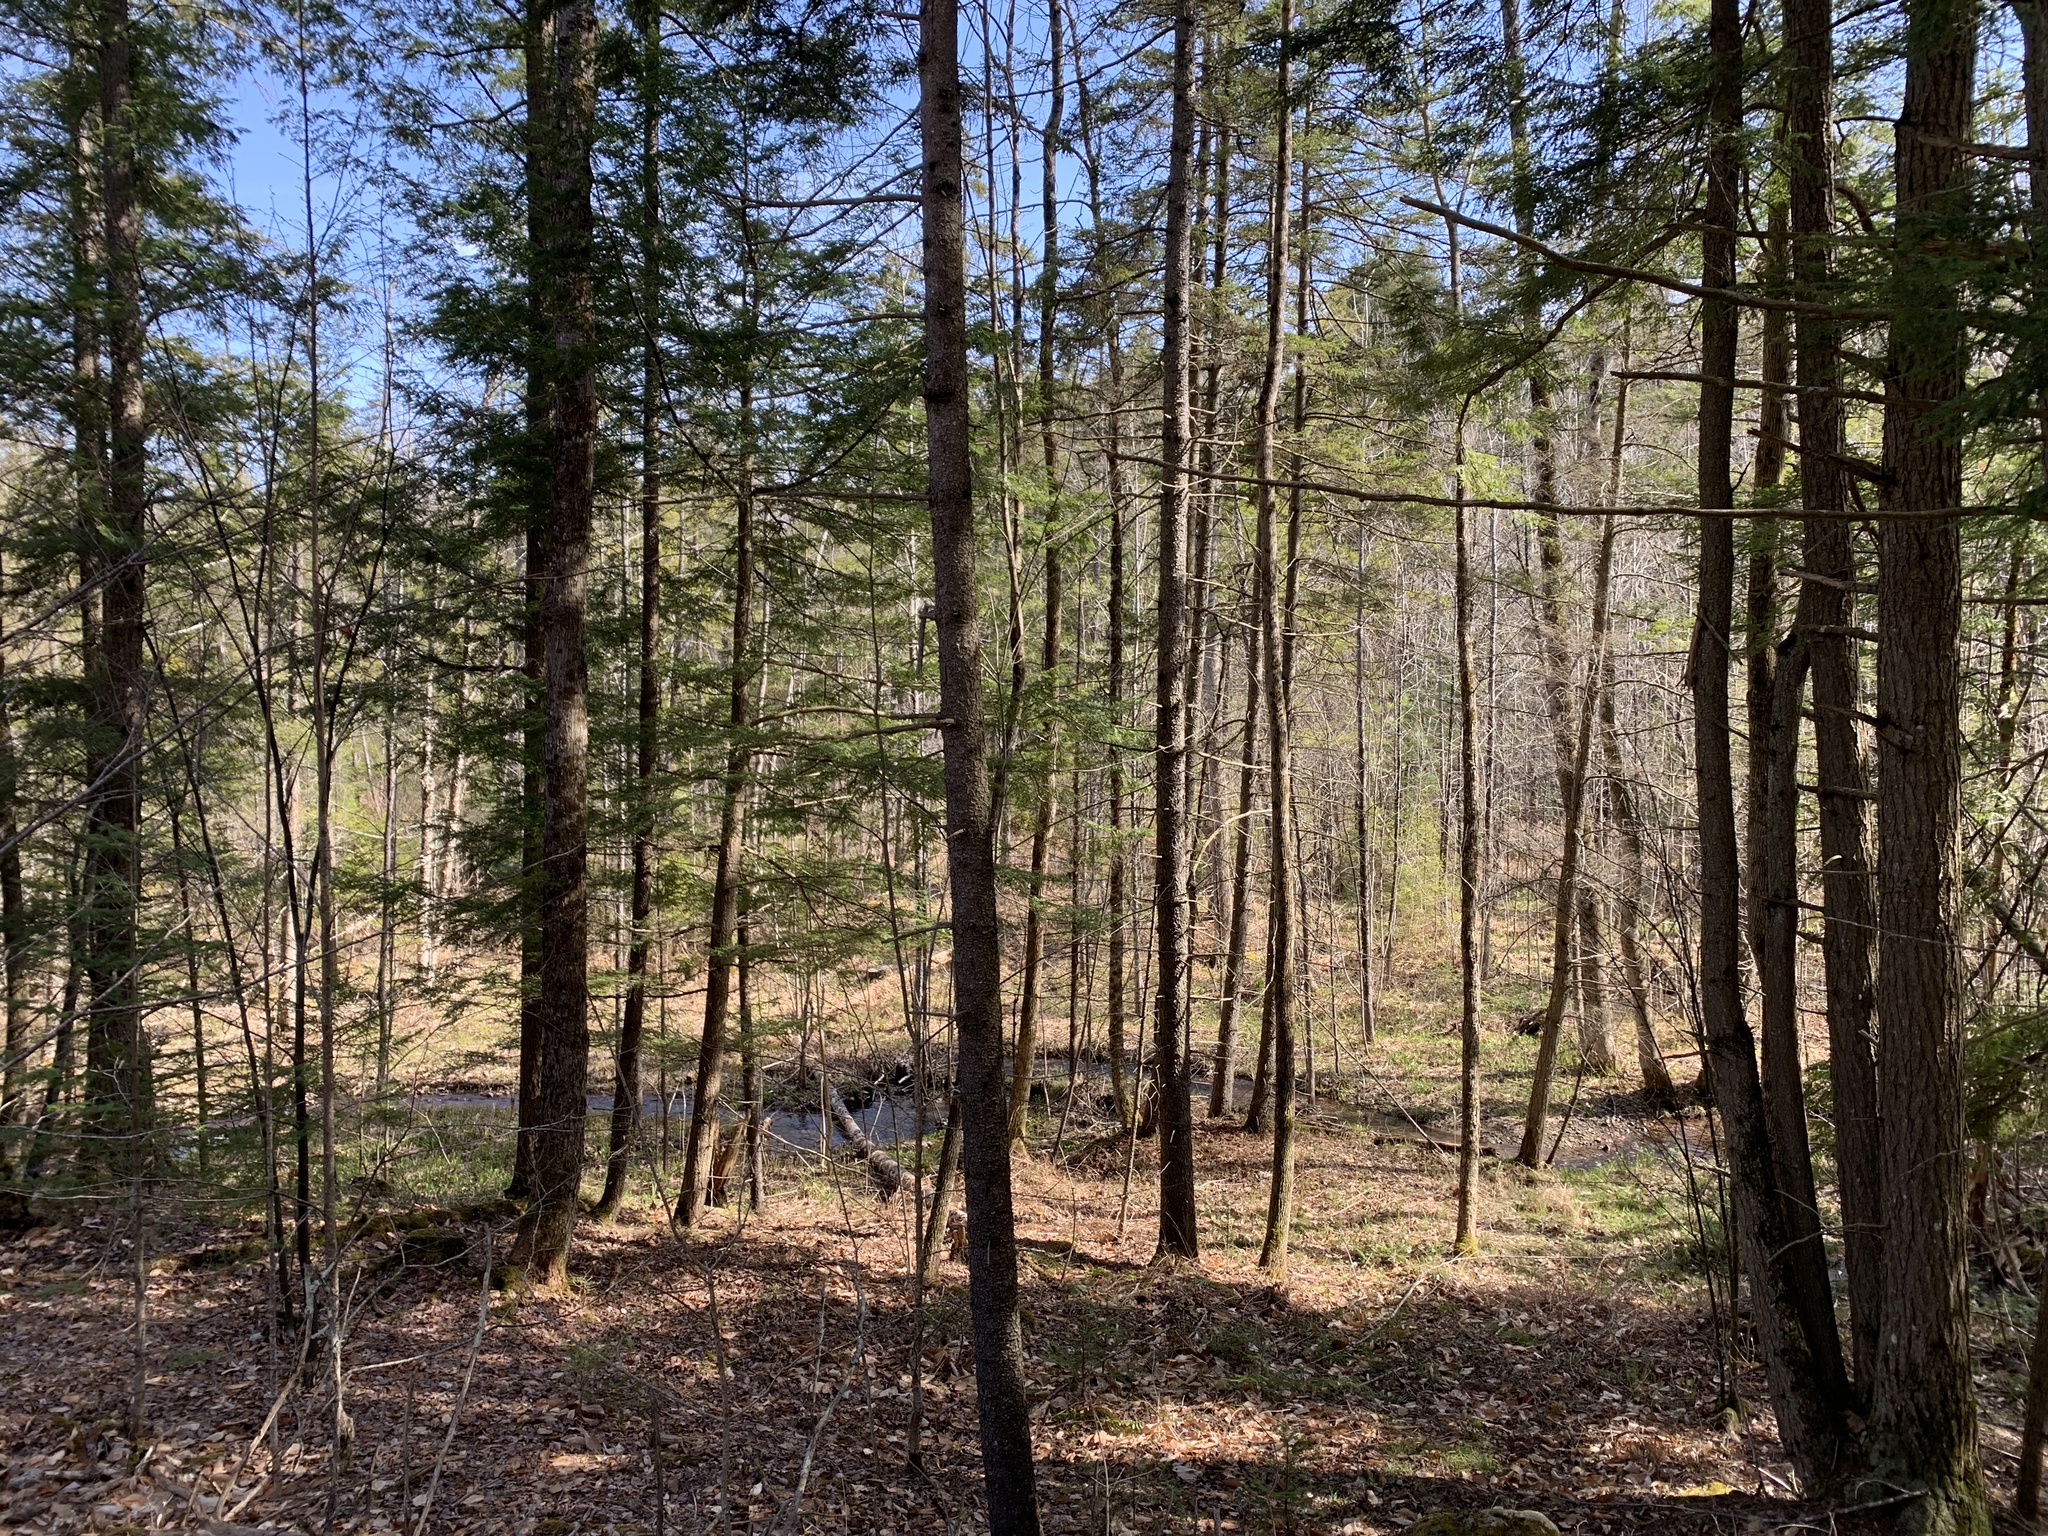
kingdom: Plantae
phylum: Tracheophyta
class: Pinopsida
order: Pinales
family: Pinaceae
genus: Tsuga
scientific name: Tsuga canadensis
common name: Eastern hemlock
